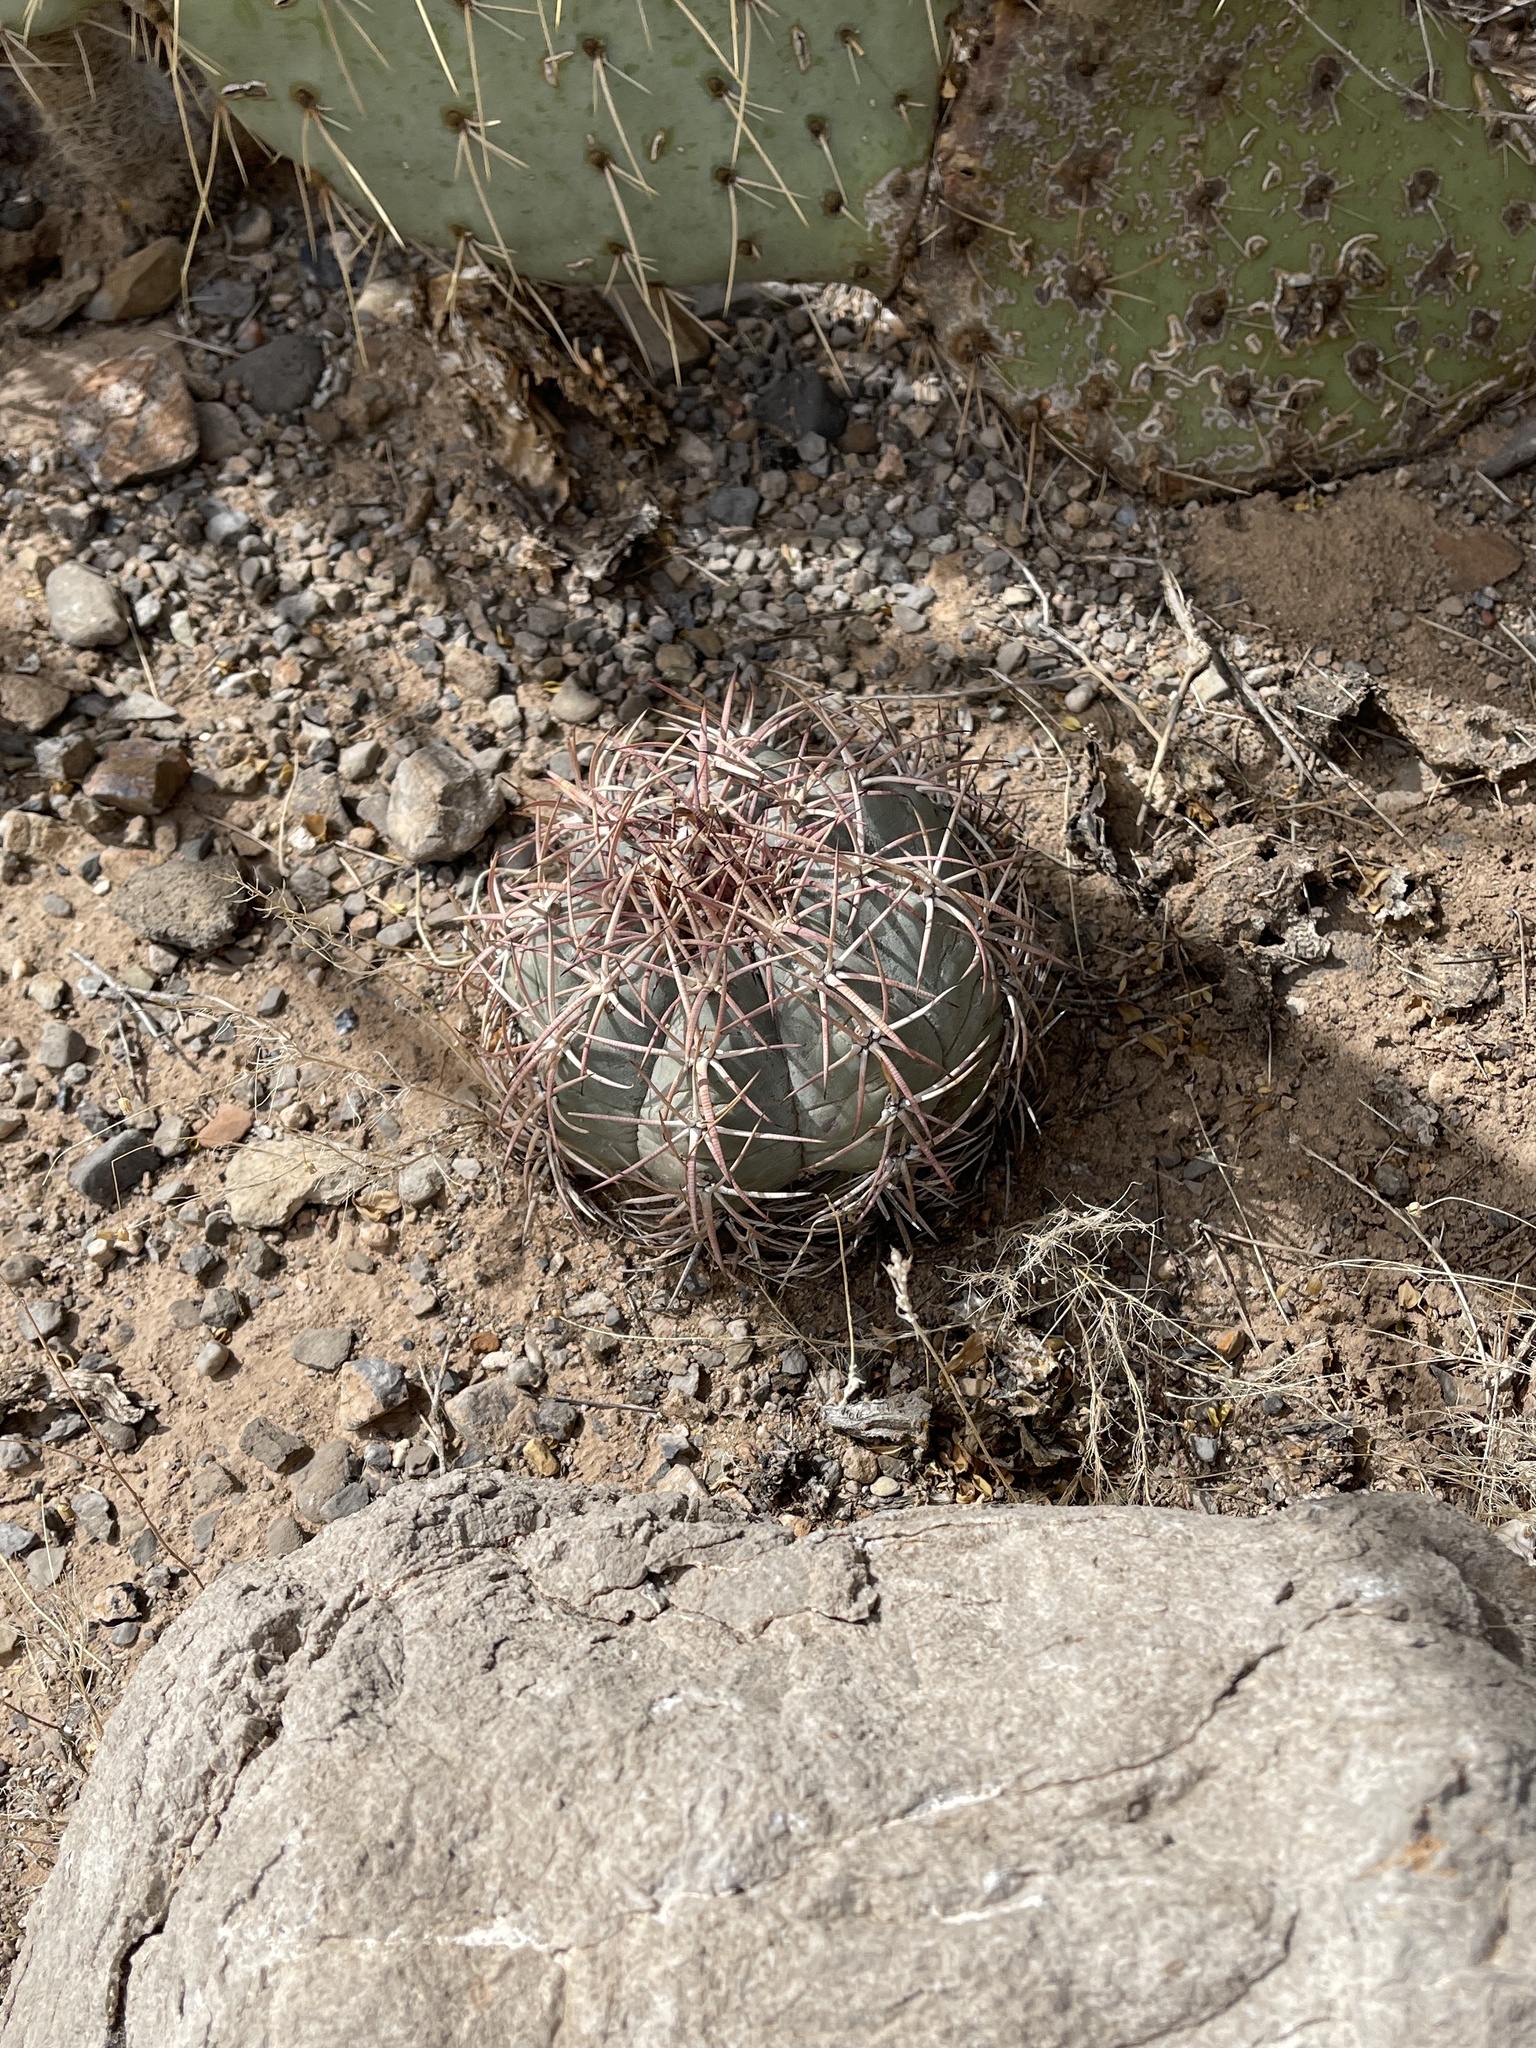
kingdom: Plantae
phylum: Tracheophyta
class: Magnoliopsida
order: Caryophyllales
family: Cactaceae
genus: Echinocactus
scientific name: Echinocactus horizonthalonius
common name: Devilshead
